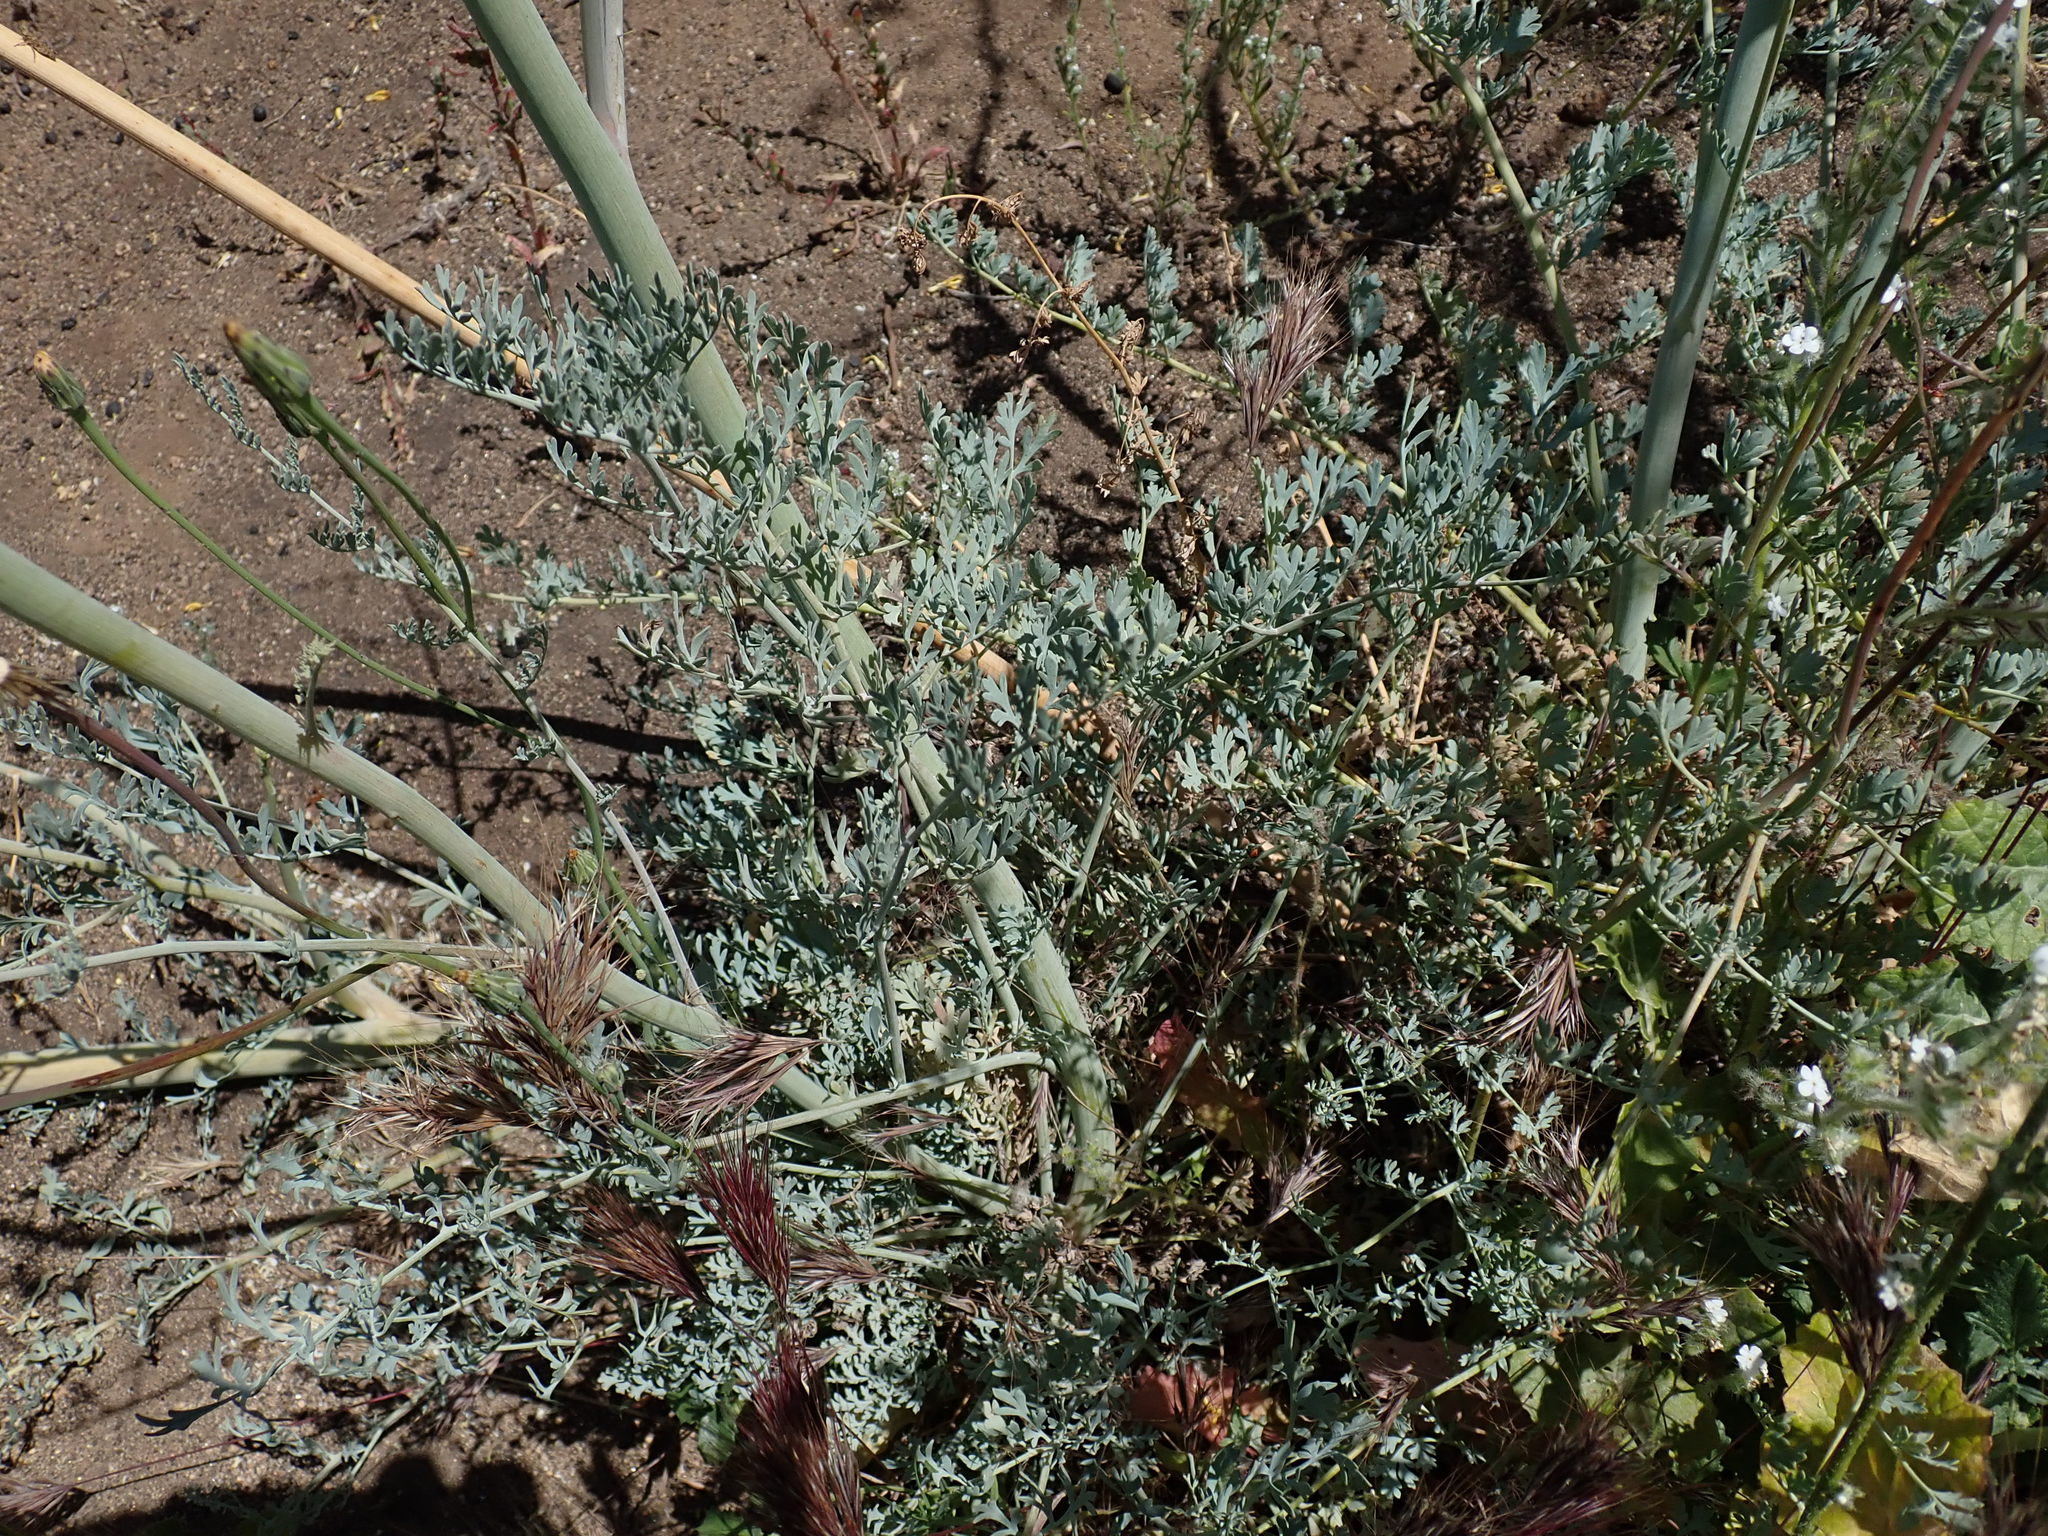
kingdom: Plantae
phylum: Tracheophyta
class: Magnoliopsida
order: Ranunculales
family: Papaveraceae
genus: Ehrendorferia
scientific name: Ehrendorferia chrysantha
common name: Golden eardrops
